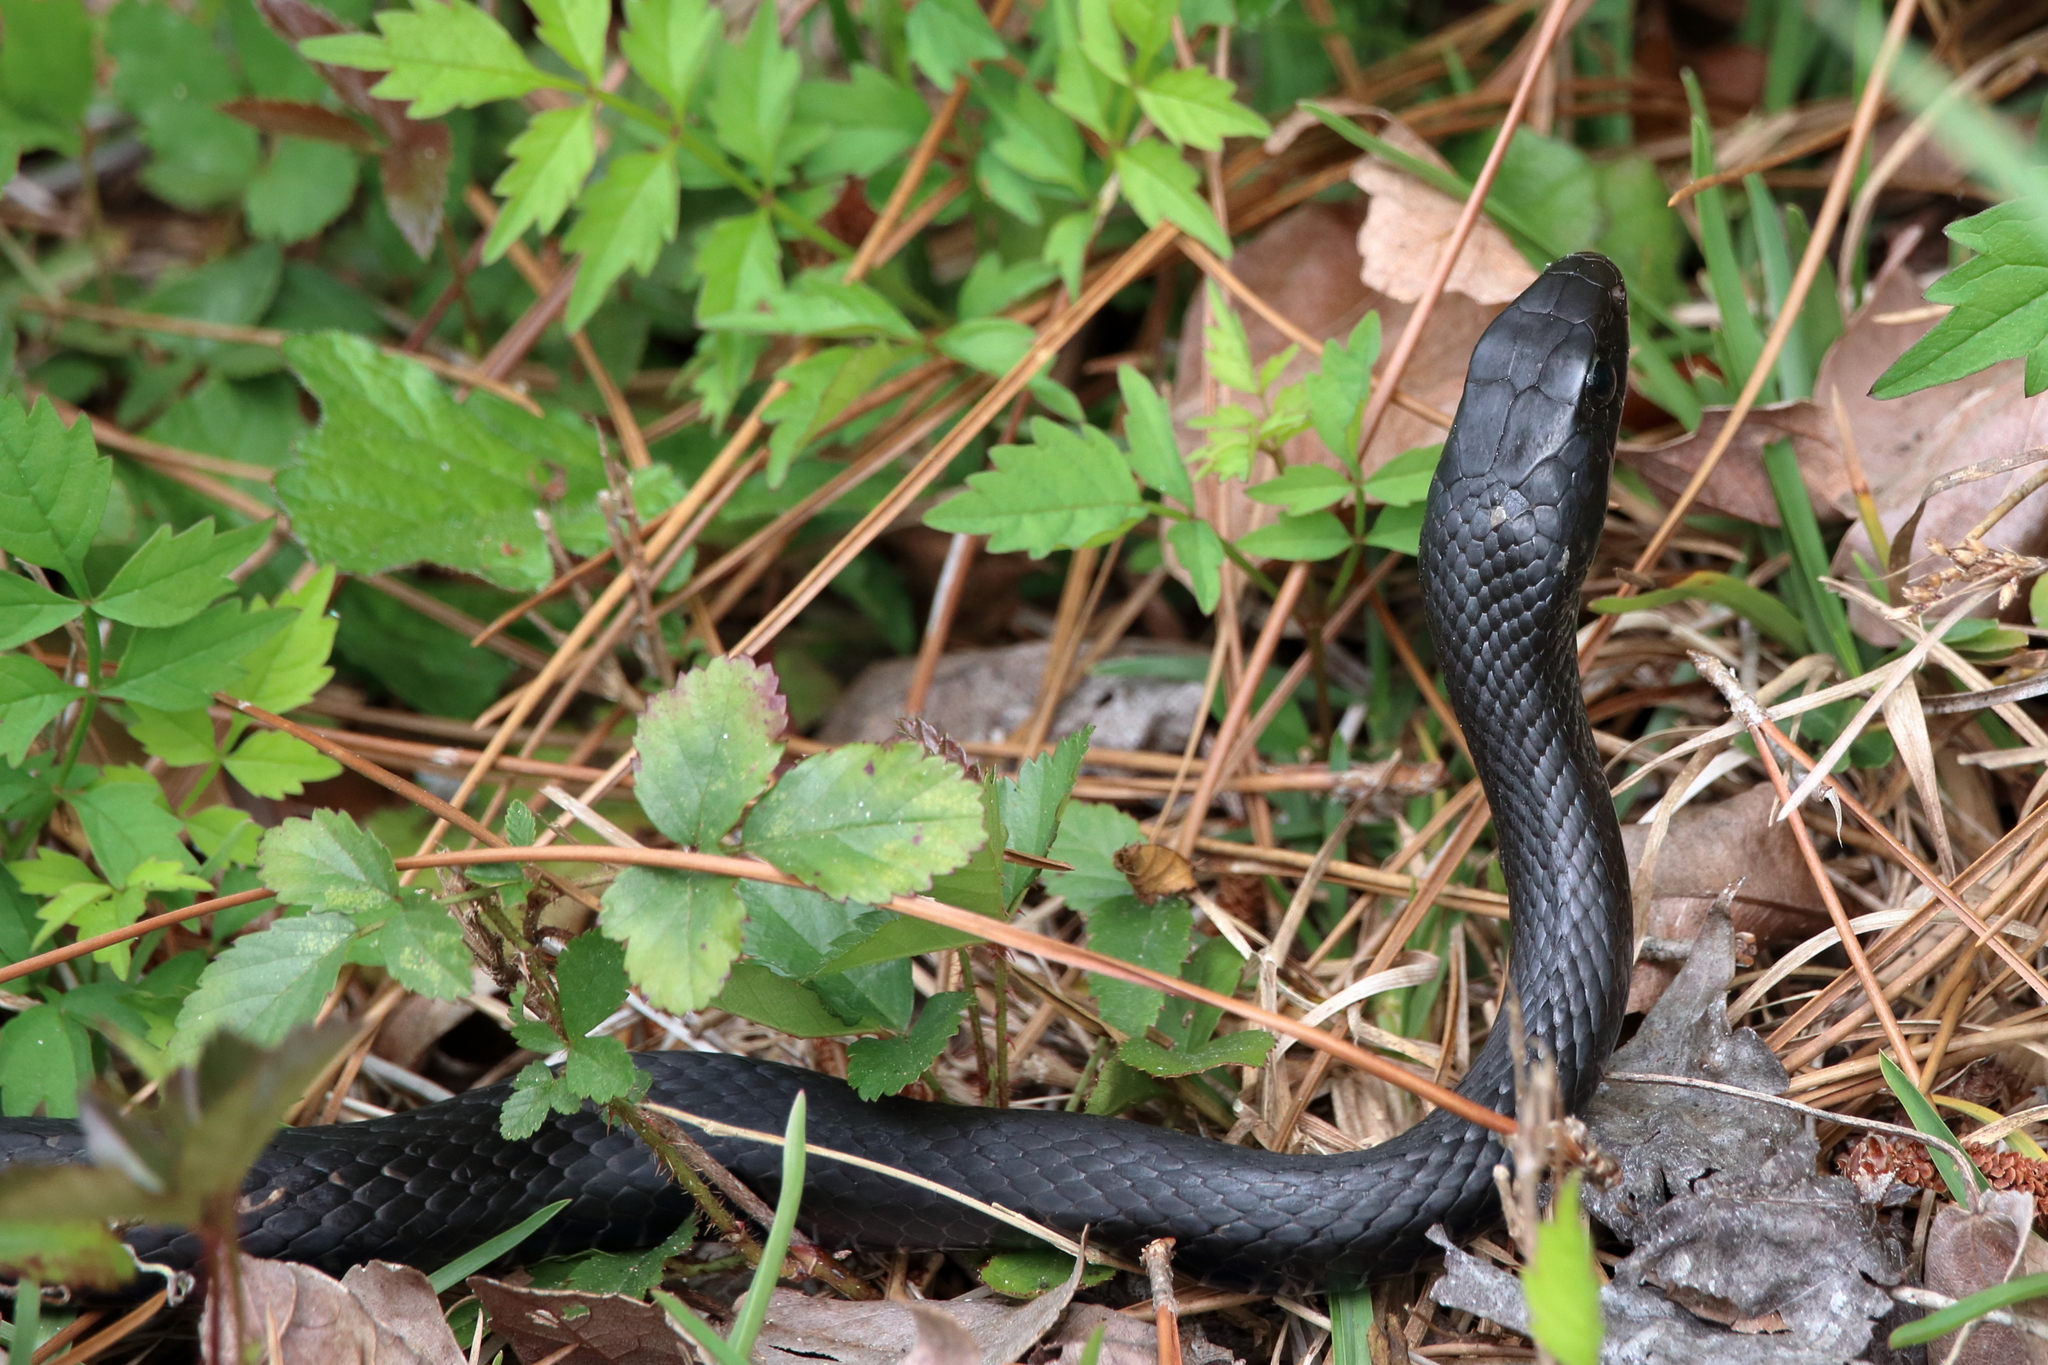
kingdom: Animalia
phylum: Chordata
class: Squamata
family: Colubridae
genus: Coluber
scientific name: Coluber constrictor
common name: Eastern racer
